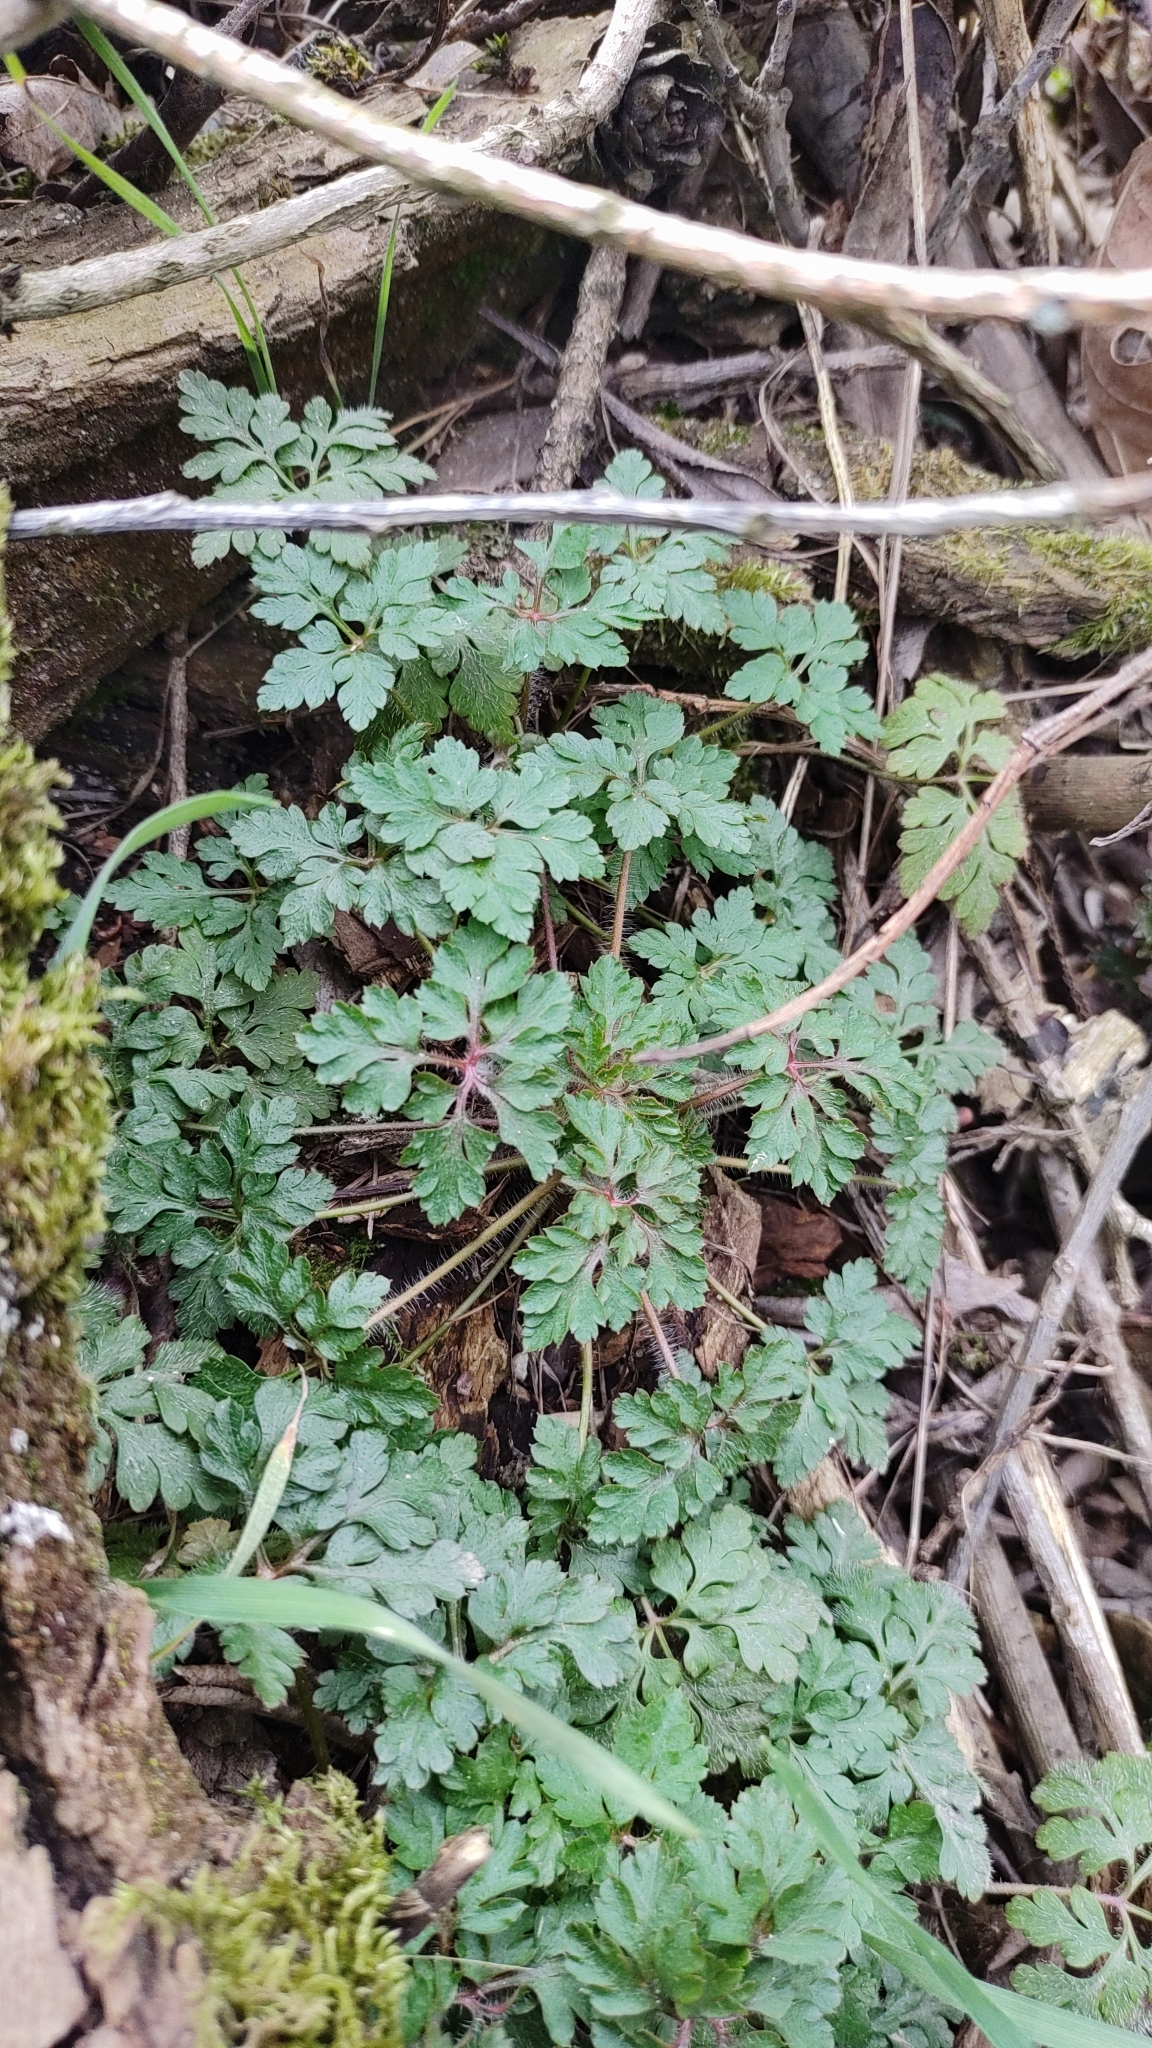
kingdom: Plantae
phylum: Tracheophyta
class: Magnoliopsida
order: Geraniales
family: Geraniaceae
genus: Geranium
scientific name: Geranium robertianum
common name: Herb-robert
